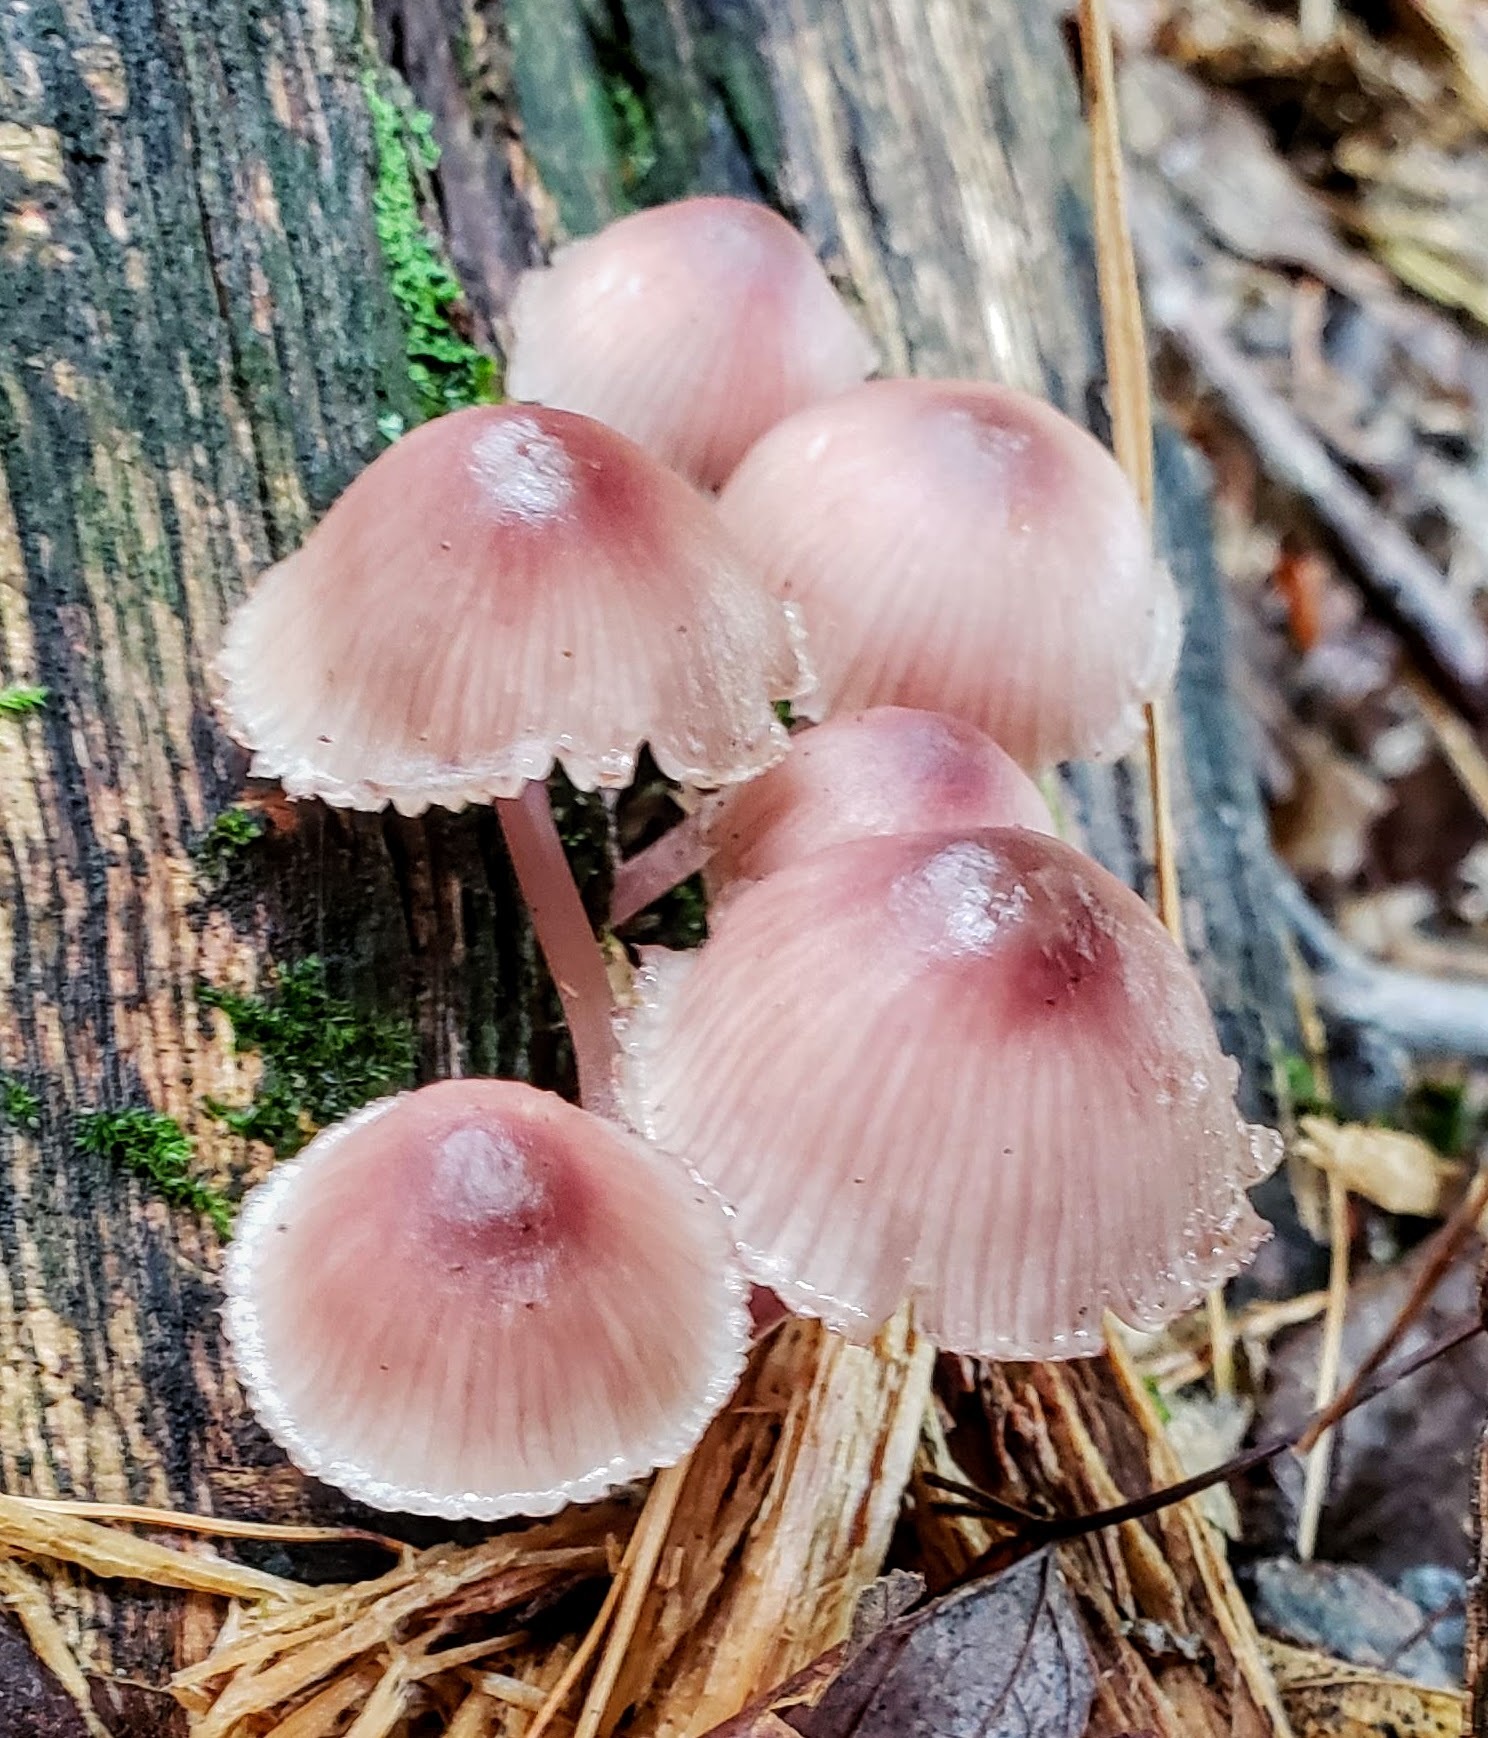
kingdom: Fungi
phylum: Basidiomycota
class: Agaricomycetes
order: Agaricales
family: Mycenaceae
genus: Mycena
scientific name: Mycena haematopus
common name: Burgundydrop bonnet
